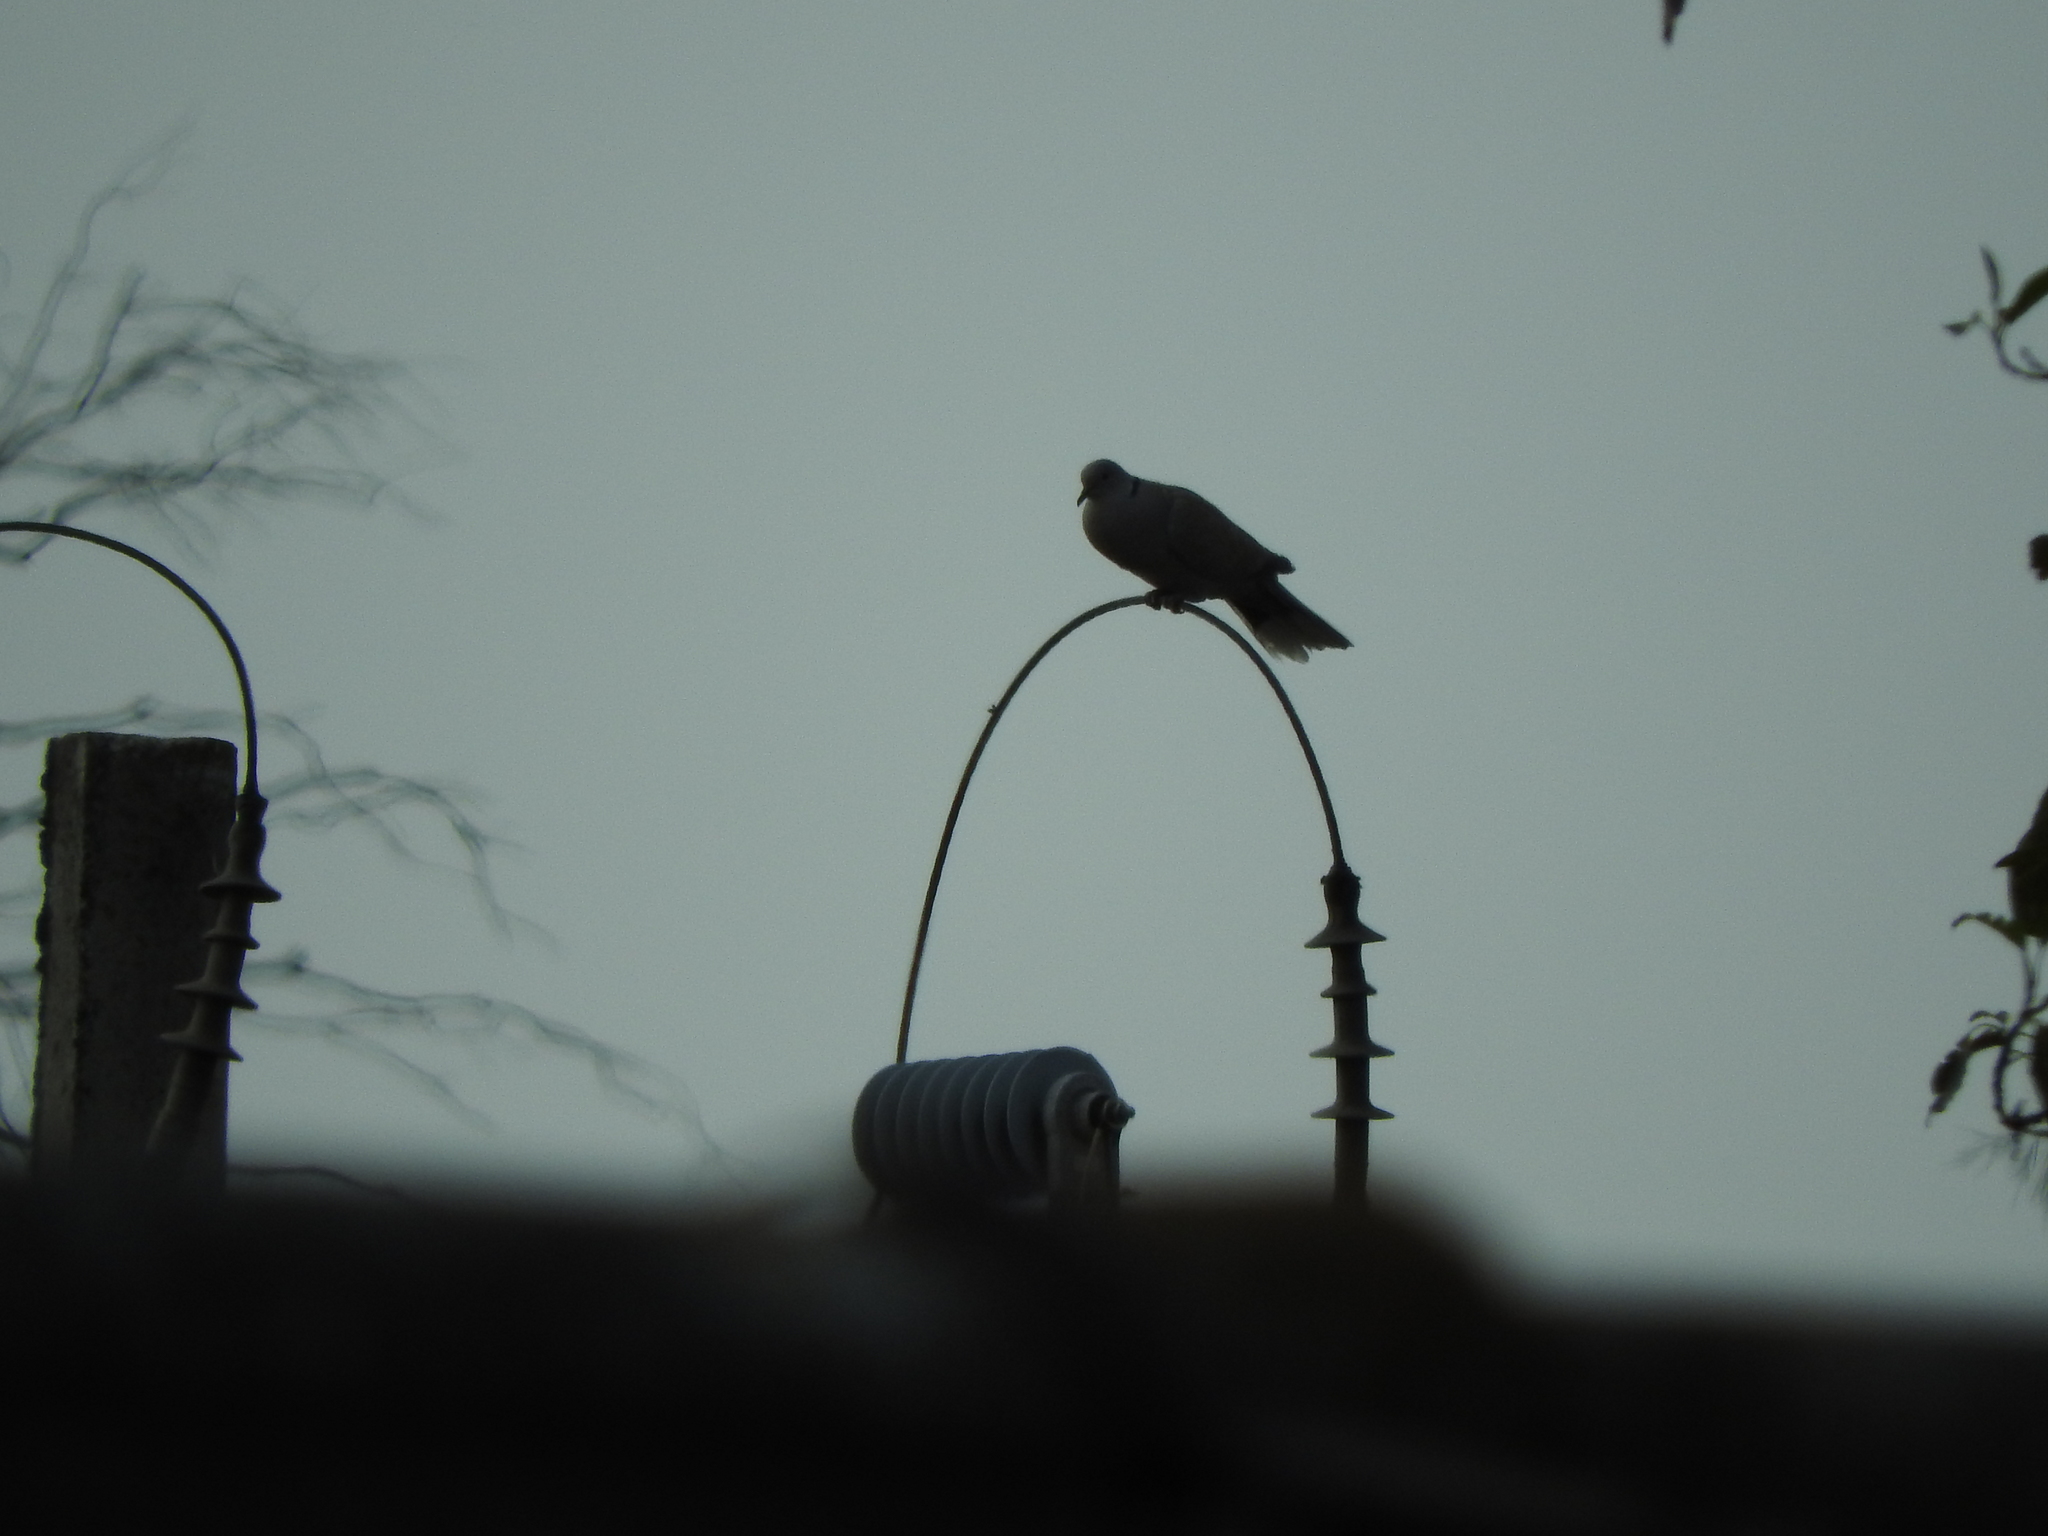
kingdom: Animalia
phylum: Chordata
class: Aves
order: Columbiformes
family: Columbidae
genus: Streptopelia
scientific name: Streptopelia decaocto
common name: Eurasian collared dove
